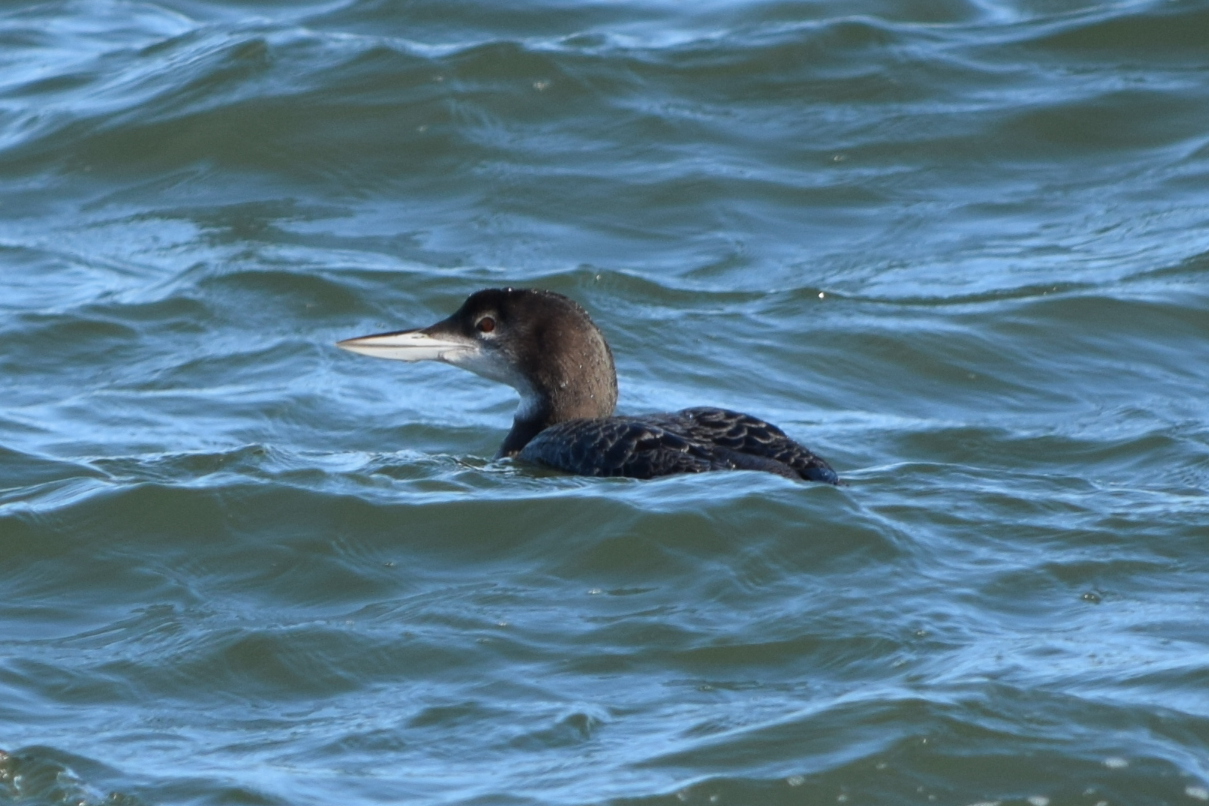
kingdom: Animalia
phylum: Chordata
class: Aves
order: Gaviiformes
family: Gaviidae
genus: Gavia
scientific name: Gavia immer
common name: Common loon
